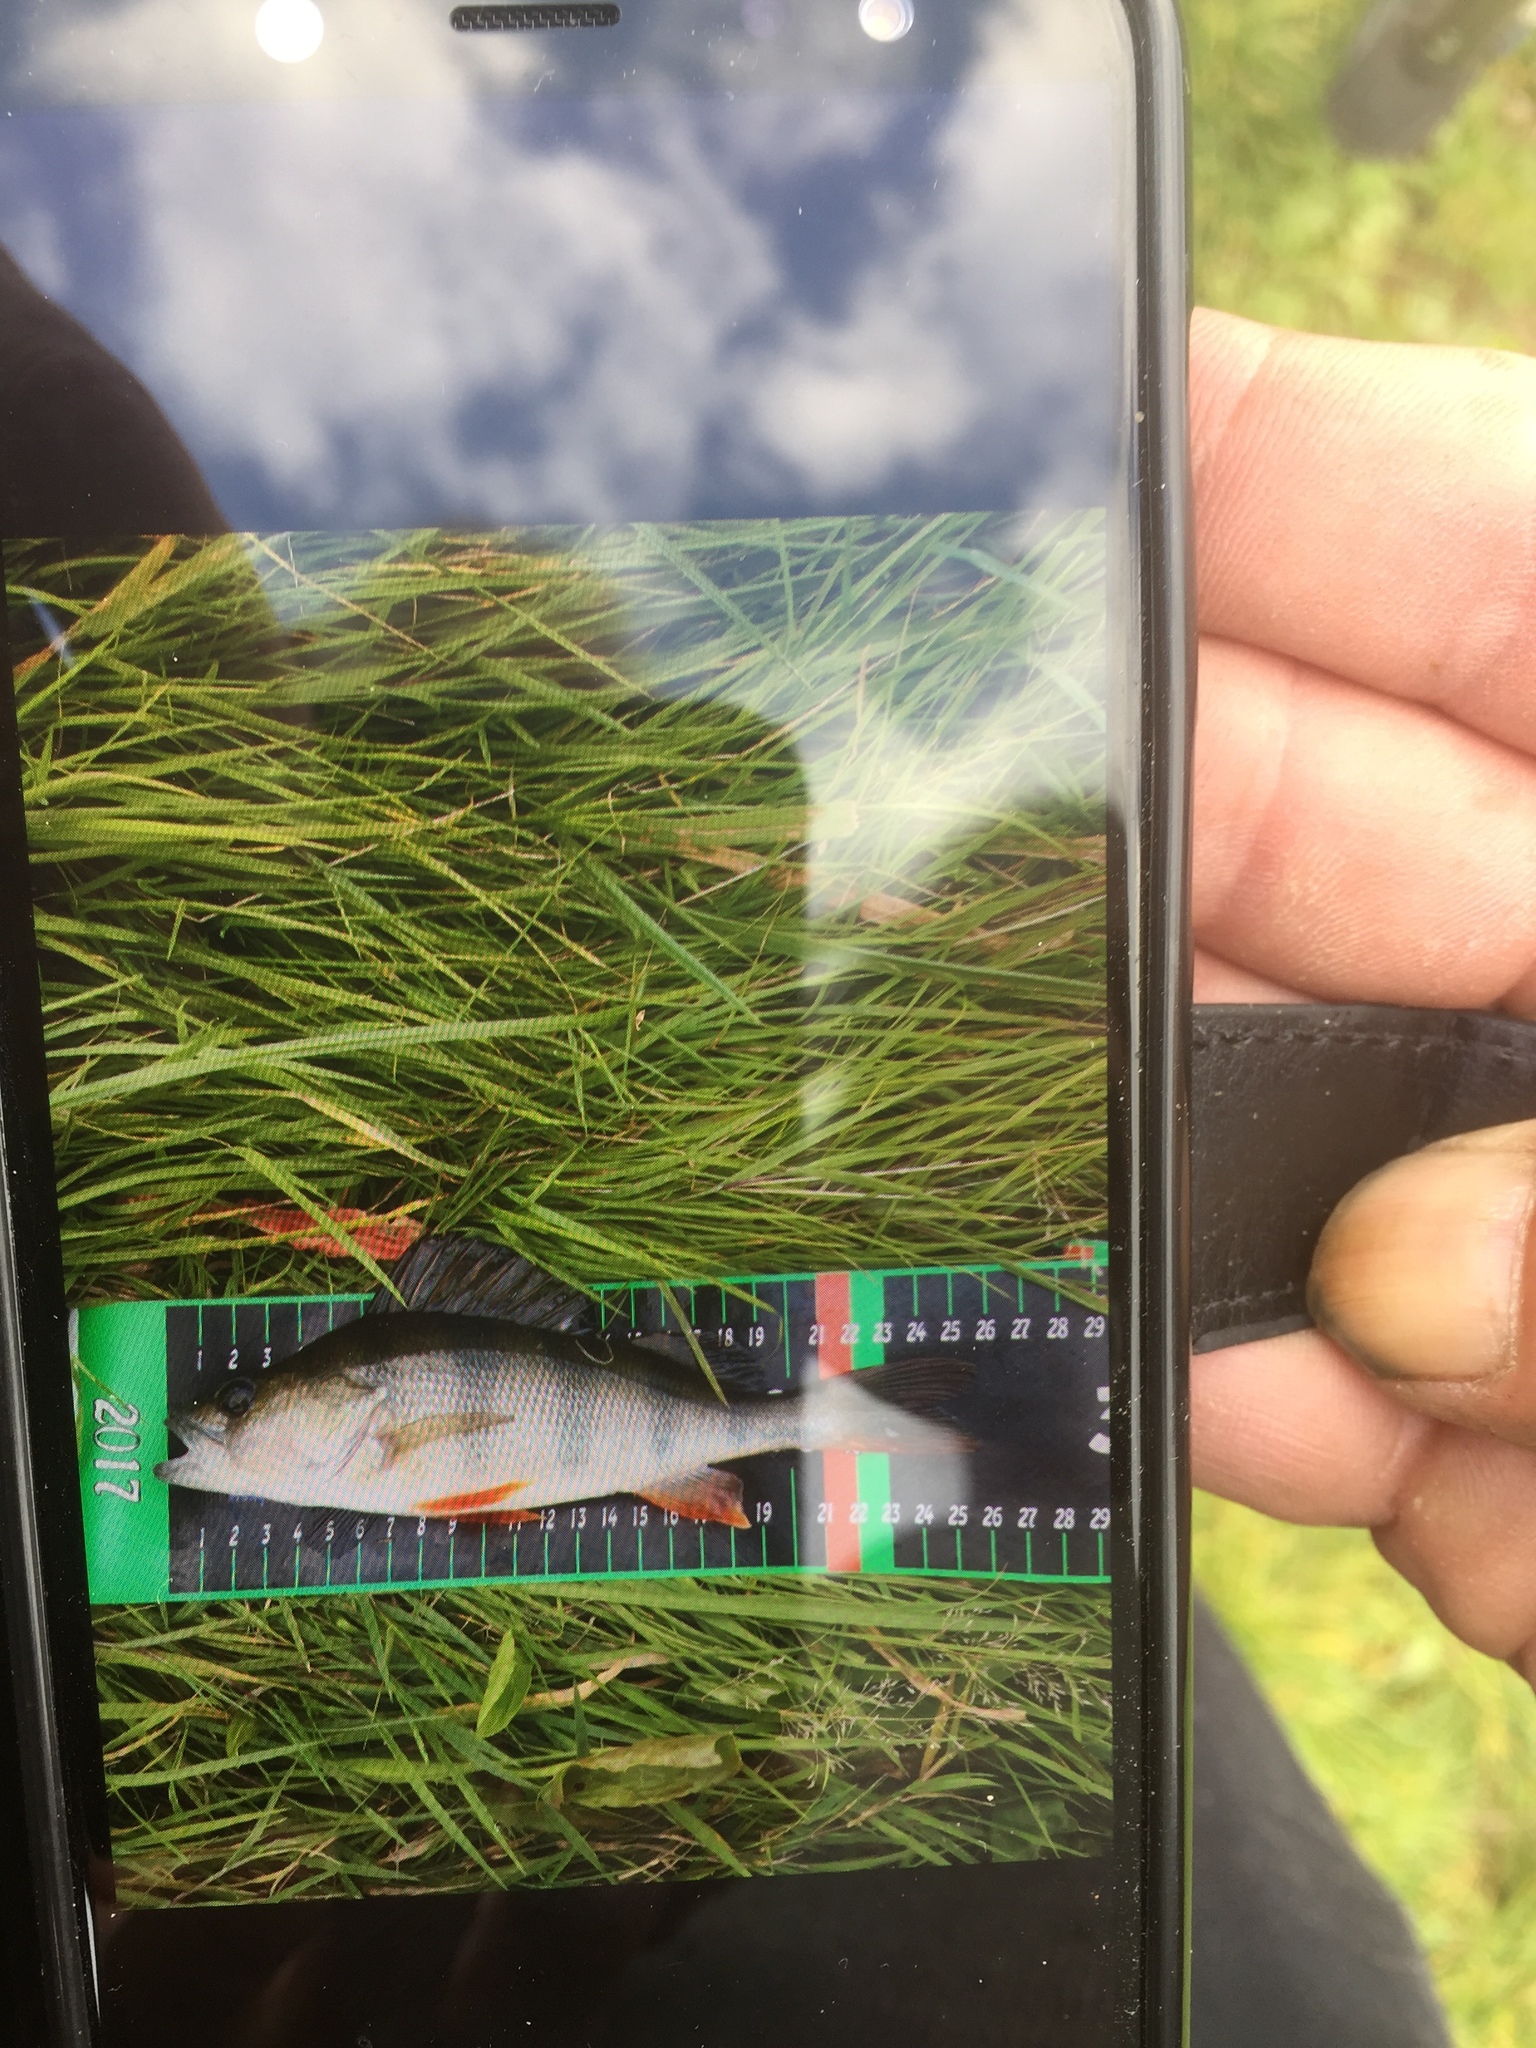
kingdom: Animalia
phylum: Chordata
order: Perciformes
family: Percidae
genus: Perca
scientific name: Perca fluviatilis
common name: Perch
